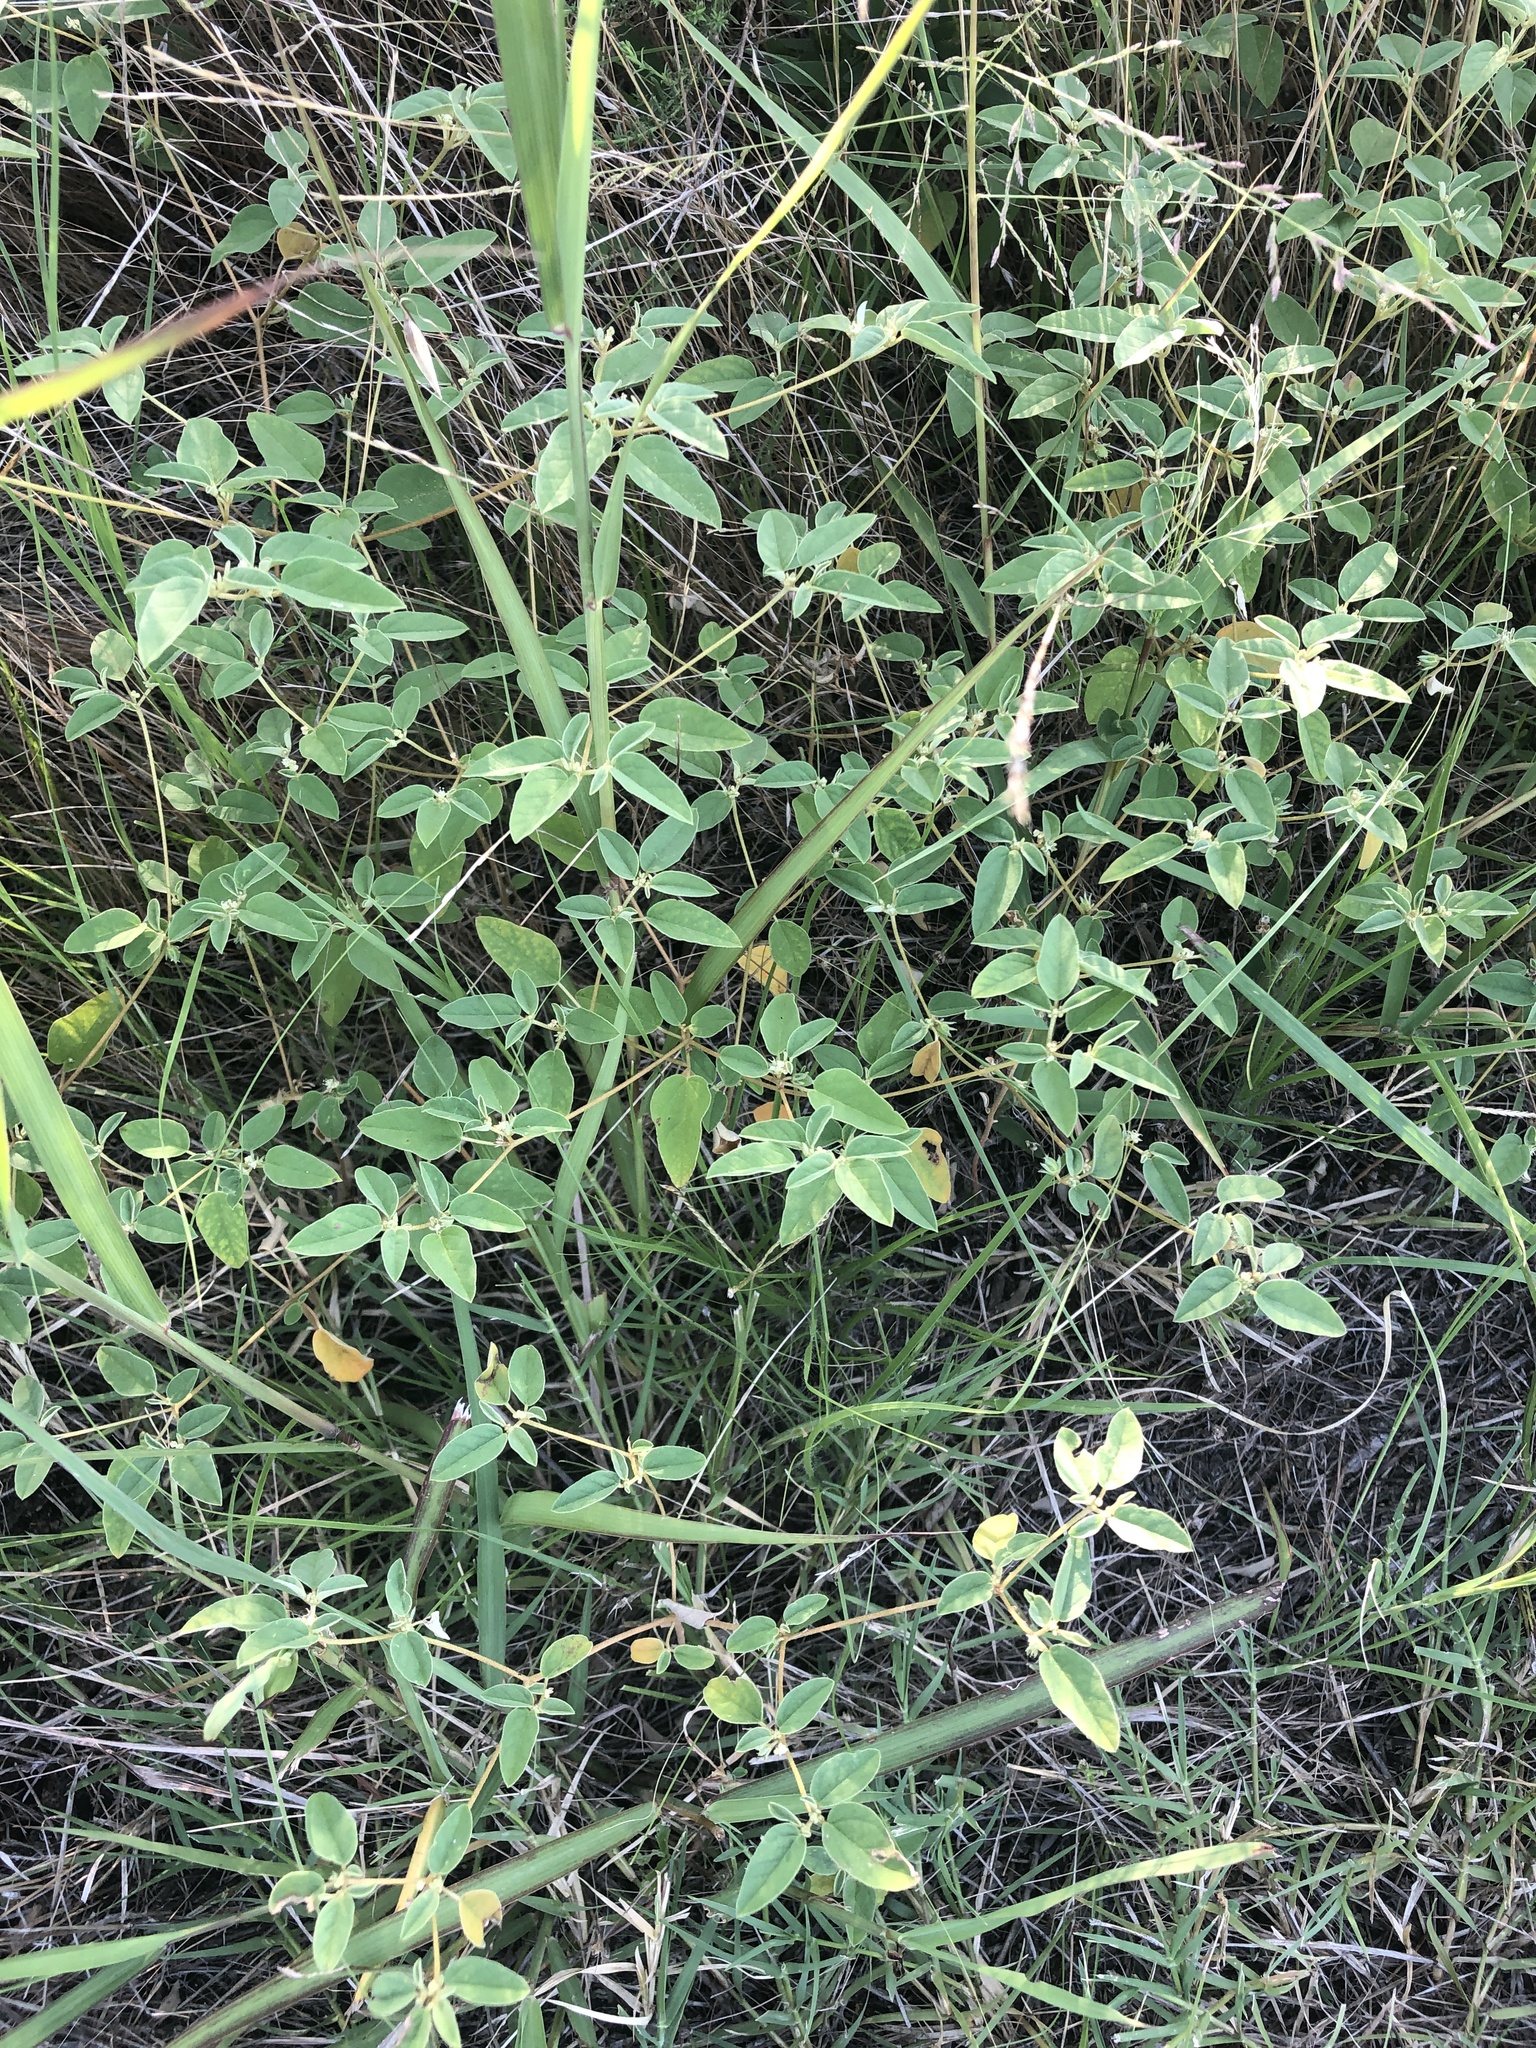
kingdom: Plantae
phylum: Tracheophyta
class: Magnoliopsida
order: Malpighiales
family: Euphorbiaceae
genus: Croton
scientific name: Croton monanthogynus
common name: One-seed croton
